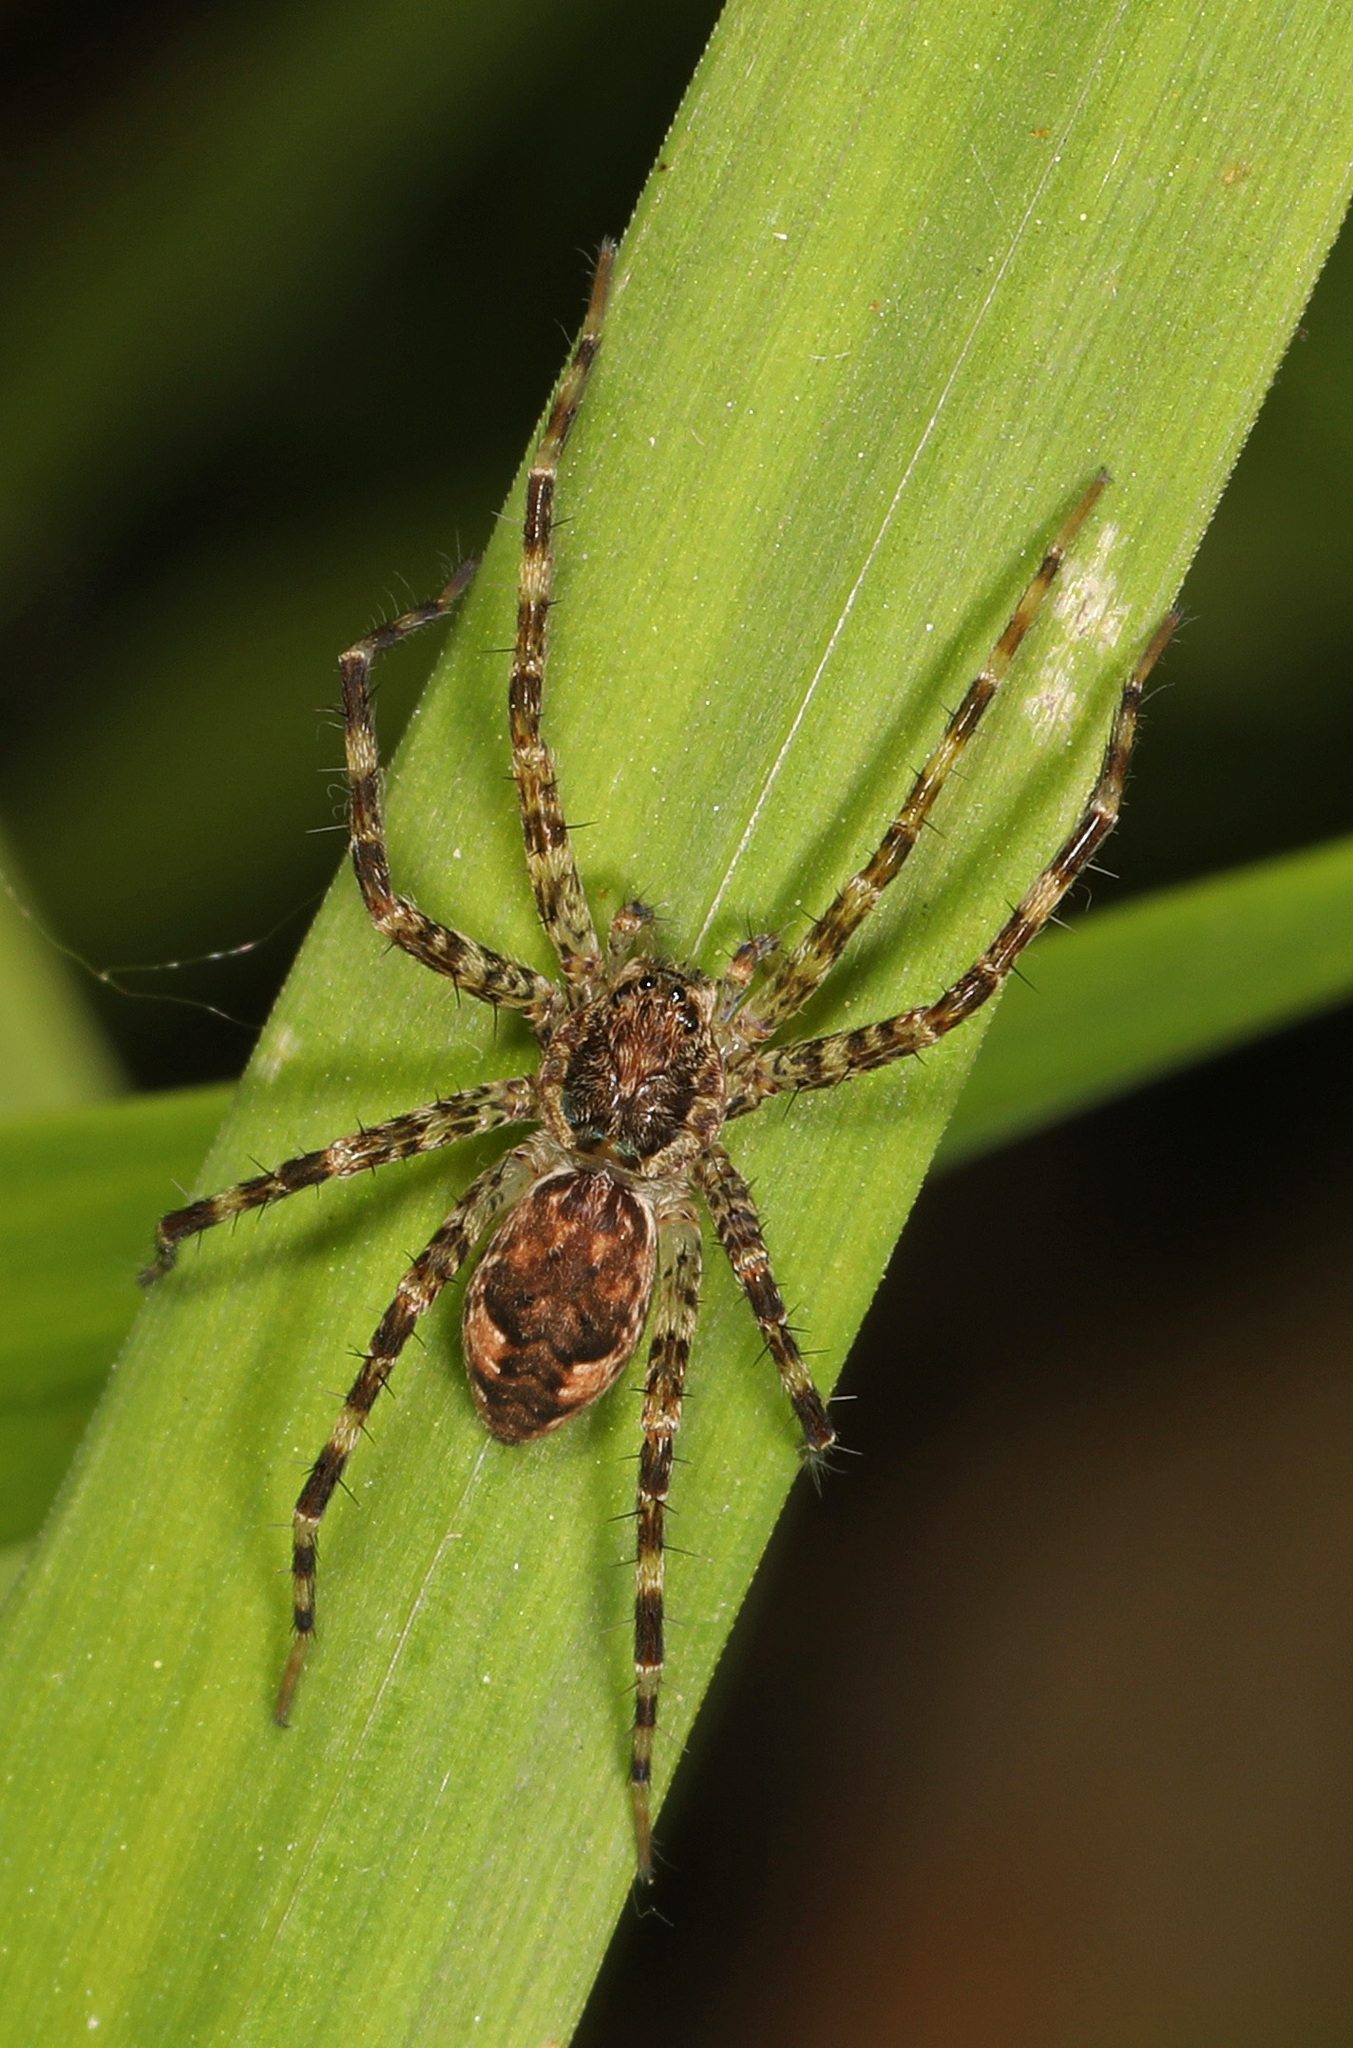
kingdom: Animalia
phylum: Arthropoda
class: Arachnida
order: Araneae
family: Pisauridae
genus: Dolomedes
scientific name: Dolomedes tenebrosus
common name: Dark fishing spider
